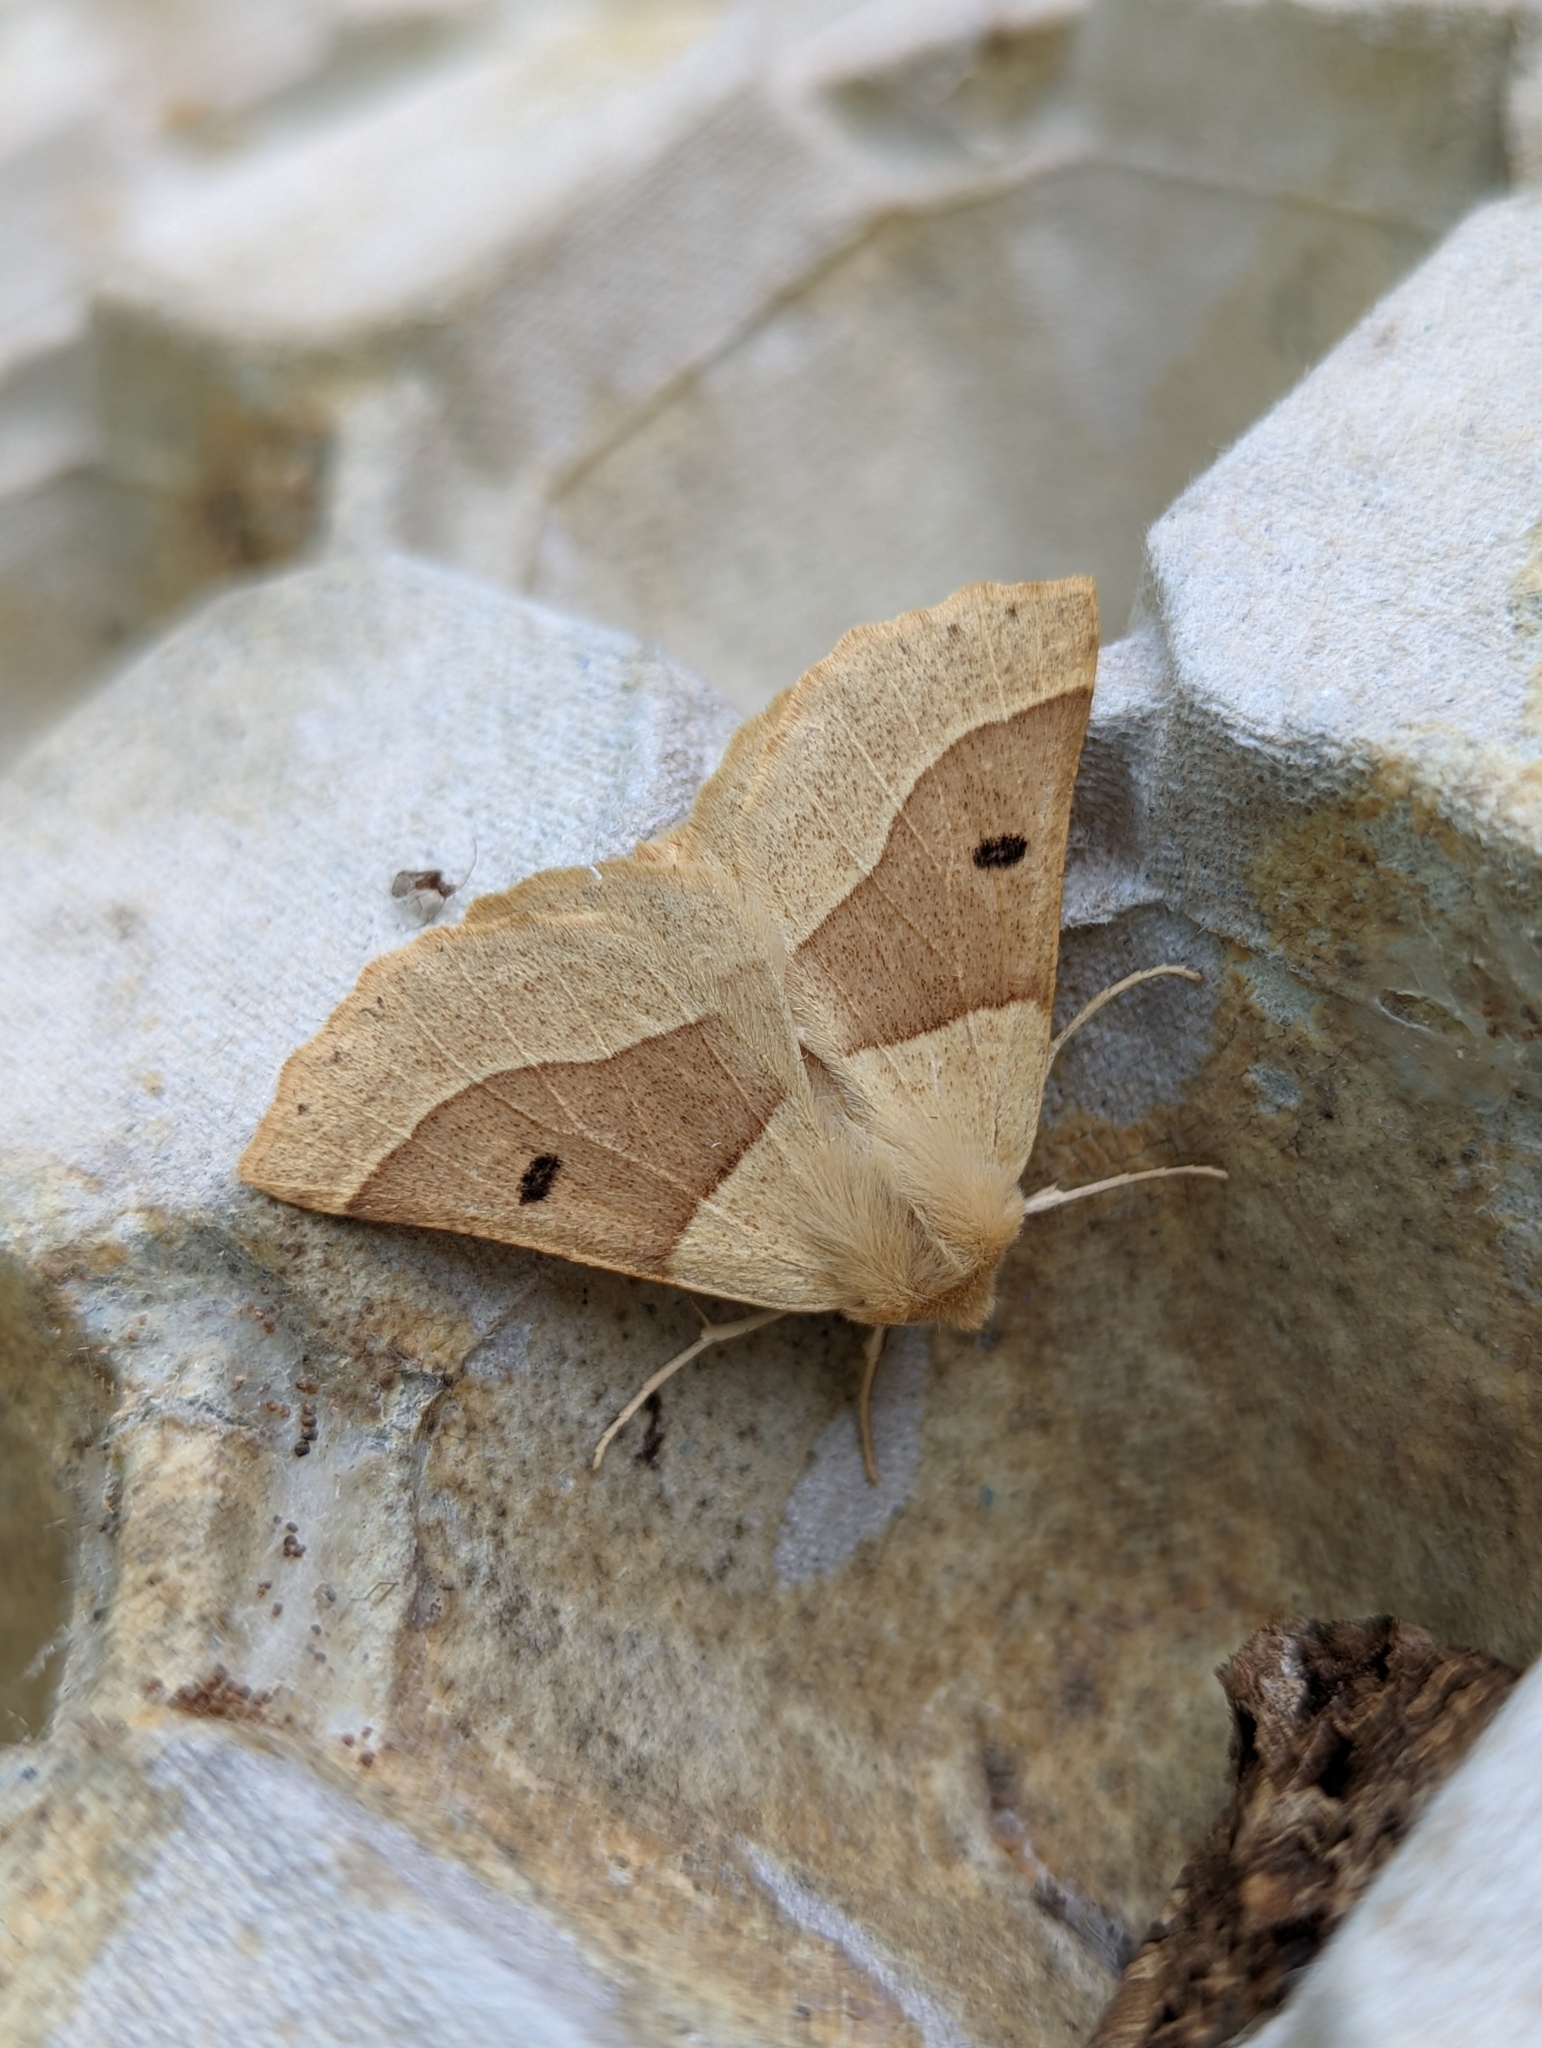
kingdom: Animalia
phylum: Arthropoda
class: Insecta
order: Lepidoptera
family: Geometridae
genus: Crocallis
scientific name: Crocallis elinguaria
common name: Scalloped oak
